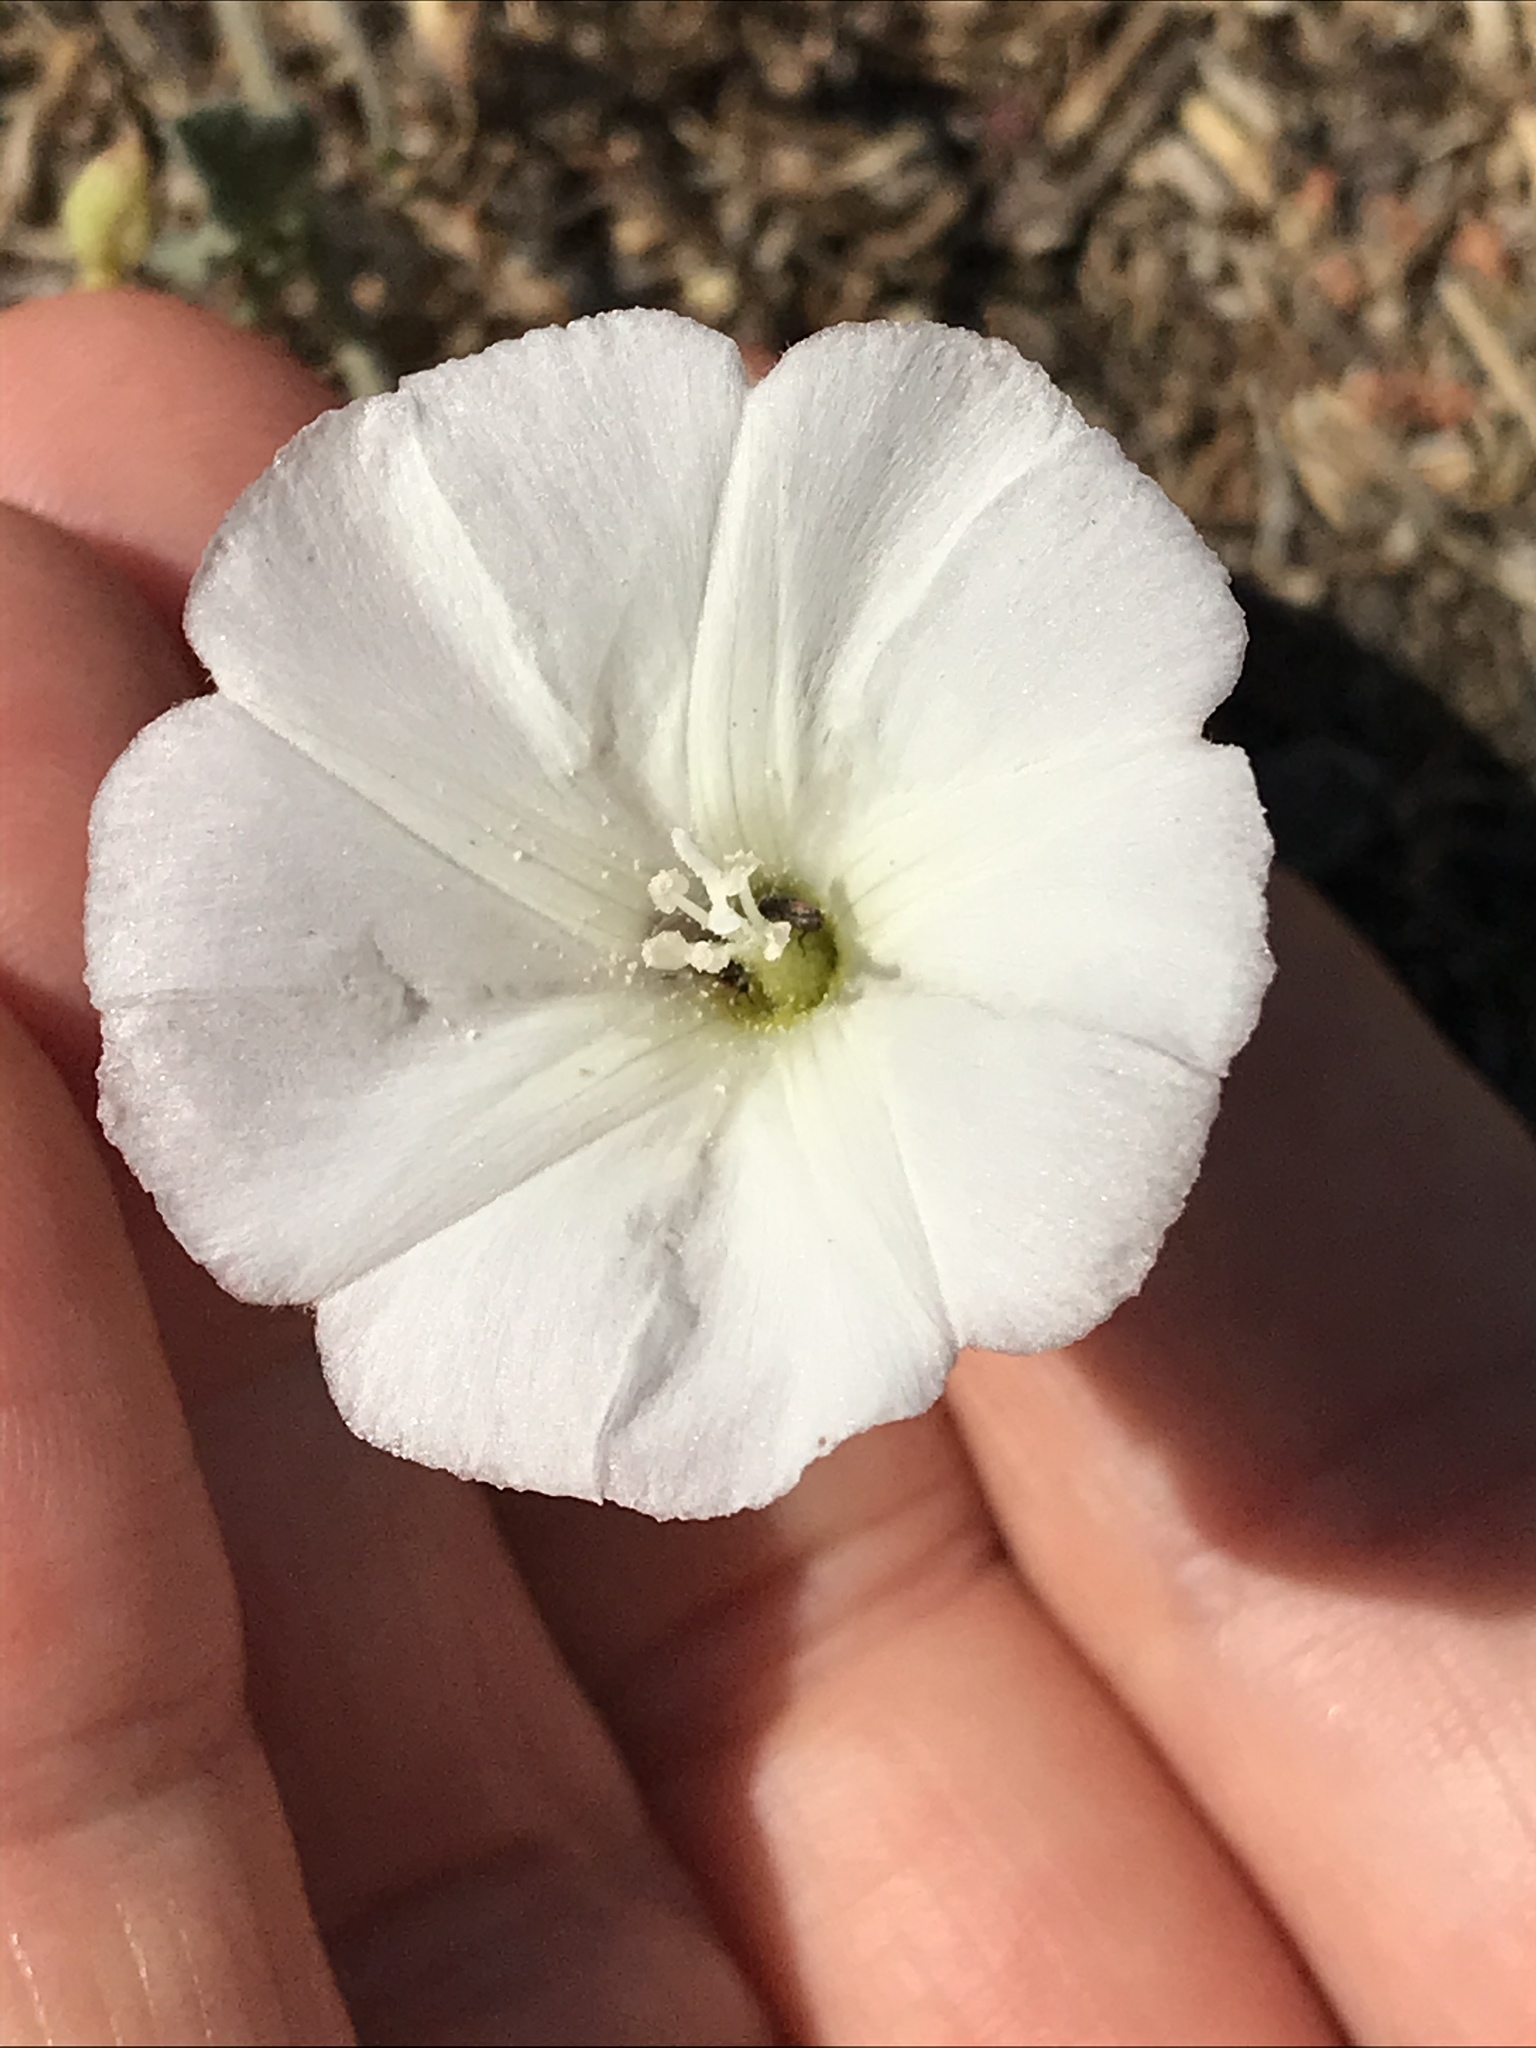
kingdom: Plantae
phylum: Tracheophyta
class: Magnoliopsida
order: Solanales
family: Convolvulaceae
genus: Convolvulus
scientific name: Convolvulus arvensis
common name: Field bindweed
